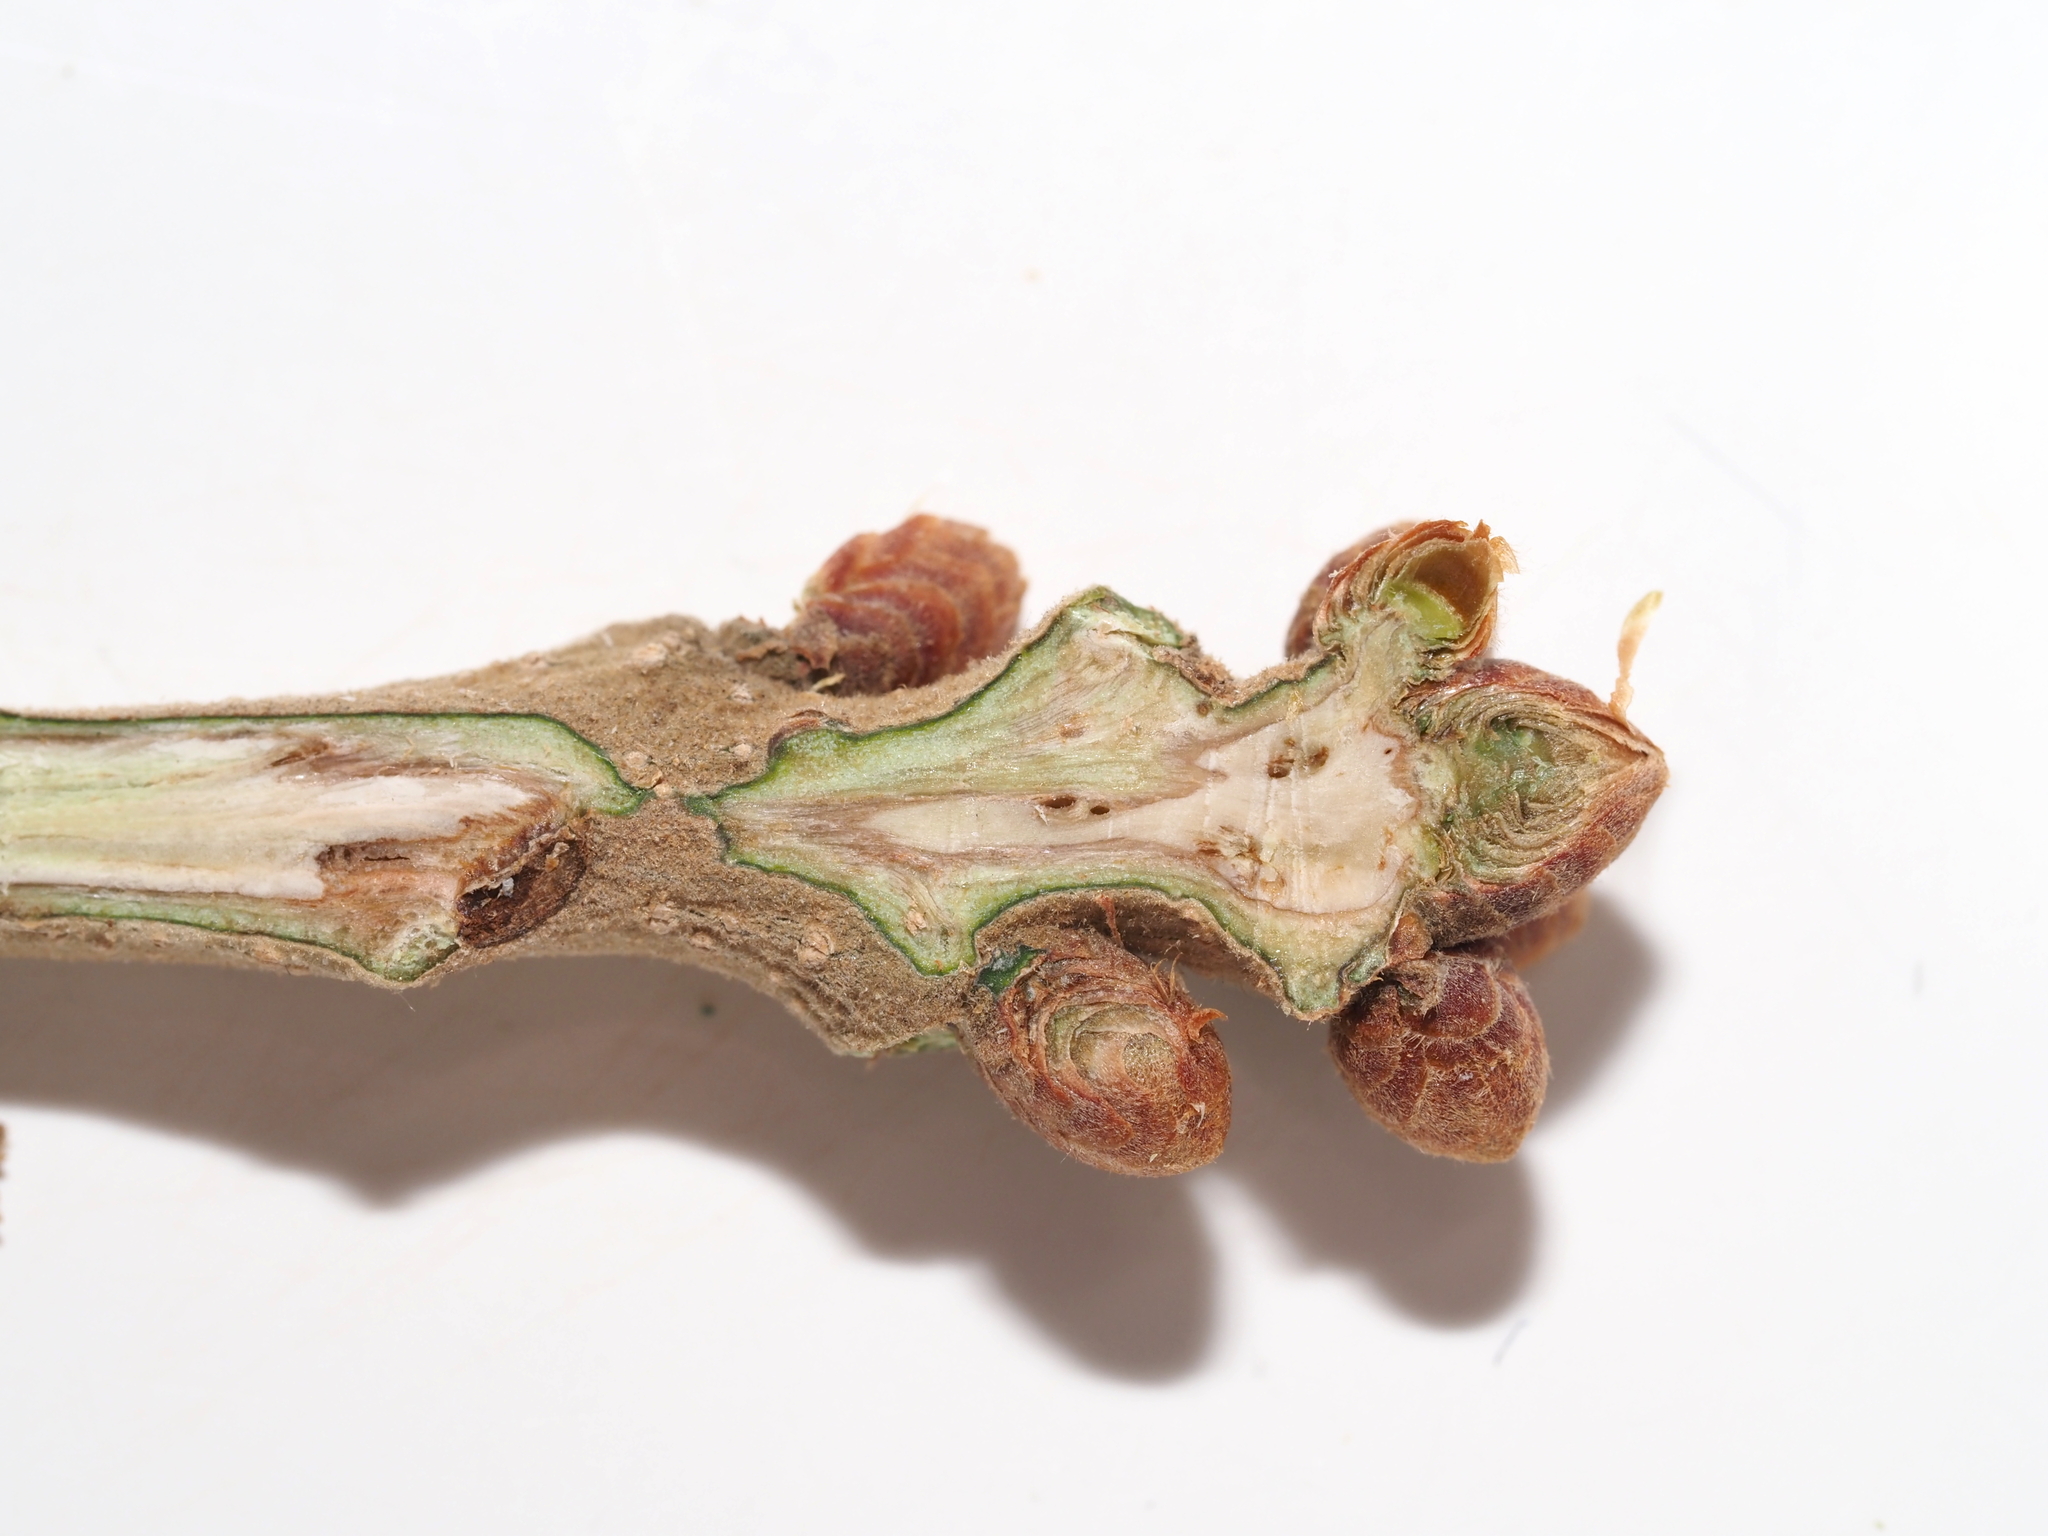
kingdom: Plantae
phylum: Tracheophyta
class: Magnoliopsida
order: Fagales
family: Fagaceae
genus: Quercus
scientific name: Quercus stellata
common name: Post oak
